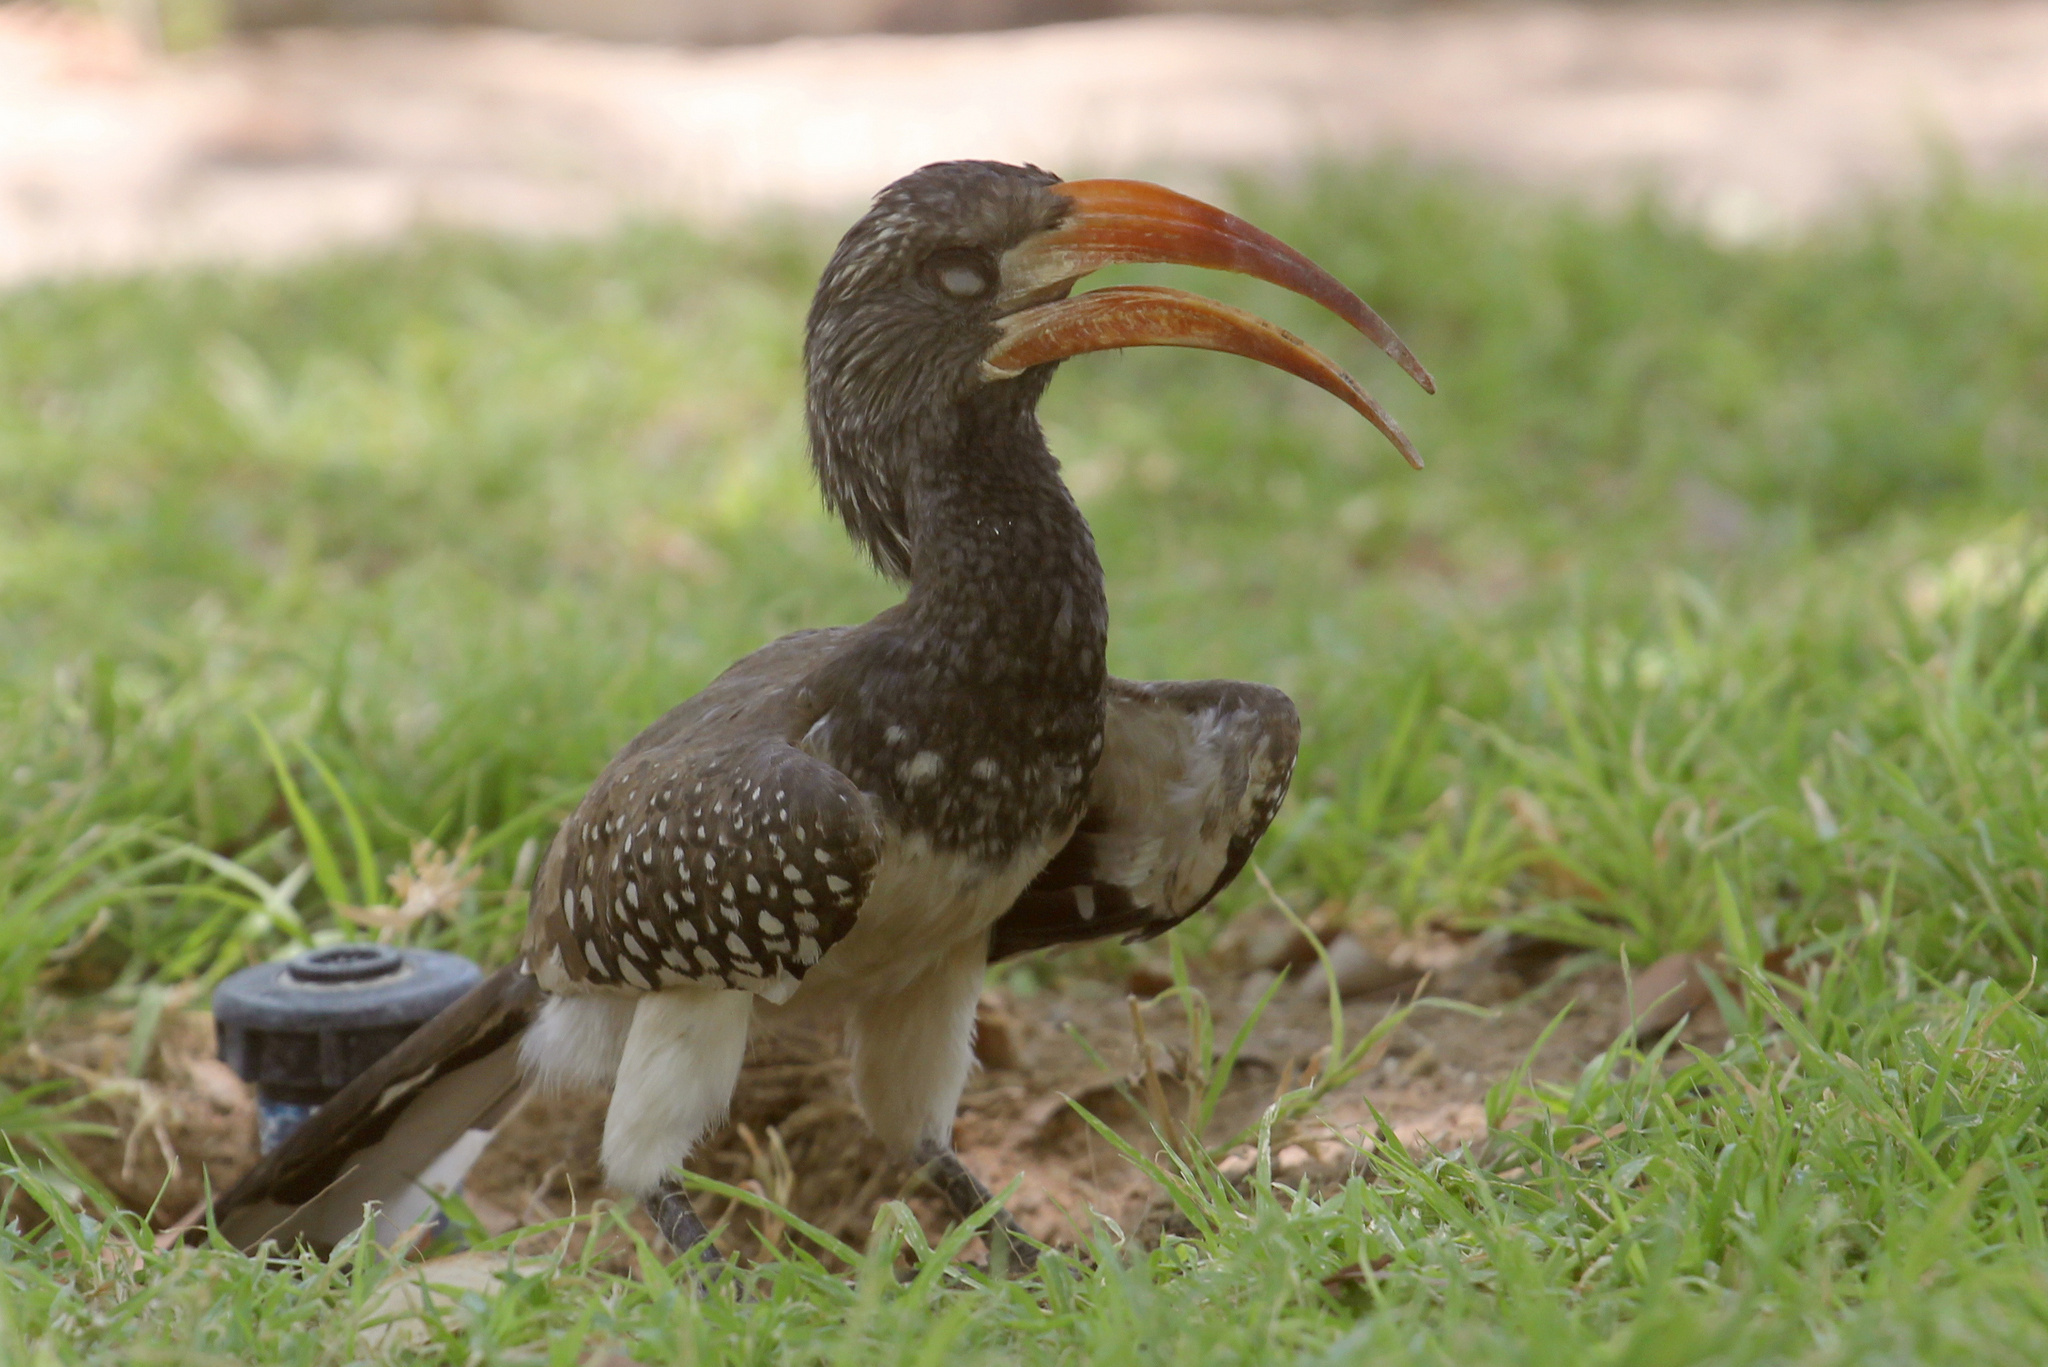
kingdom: Animalia
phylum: Chordata
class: Aves
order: Bucerotiformes
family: Bucerotidae
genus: Tockus
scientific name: Tockus monteiri
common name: Monteiro's hornbill
